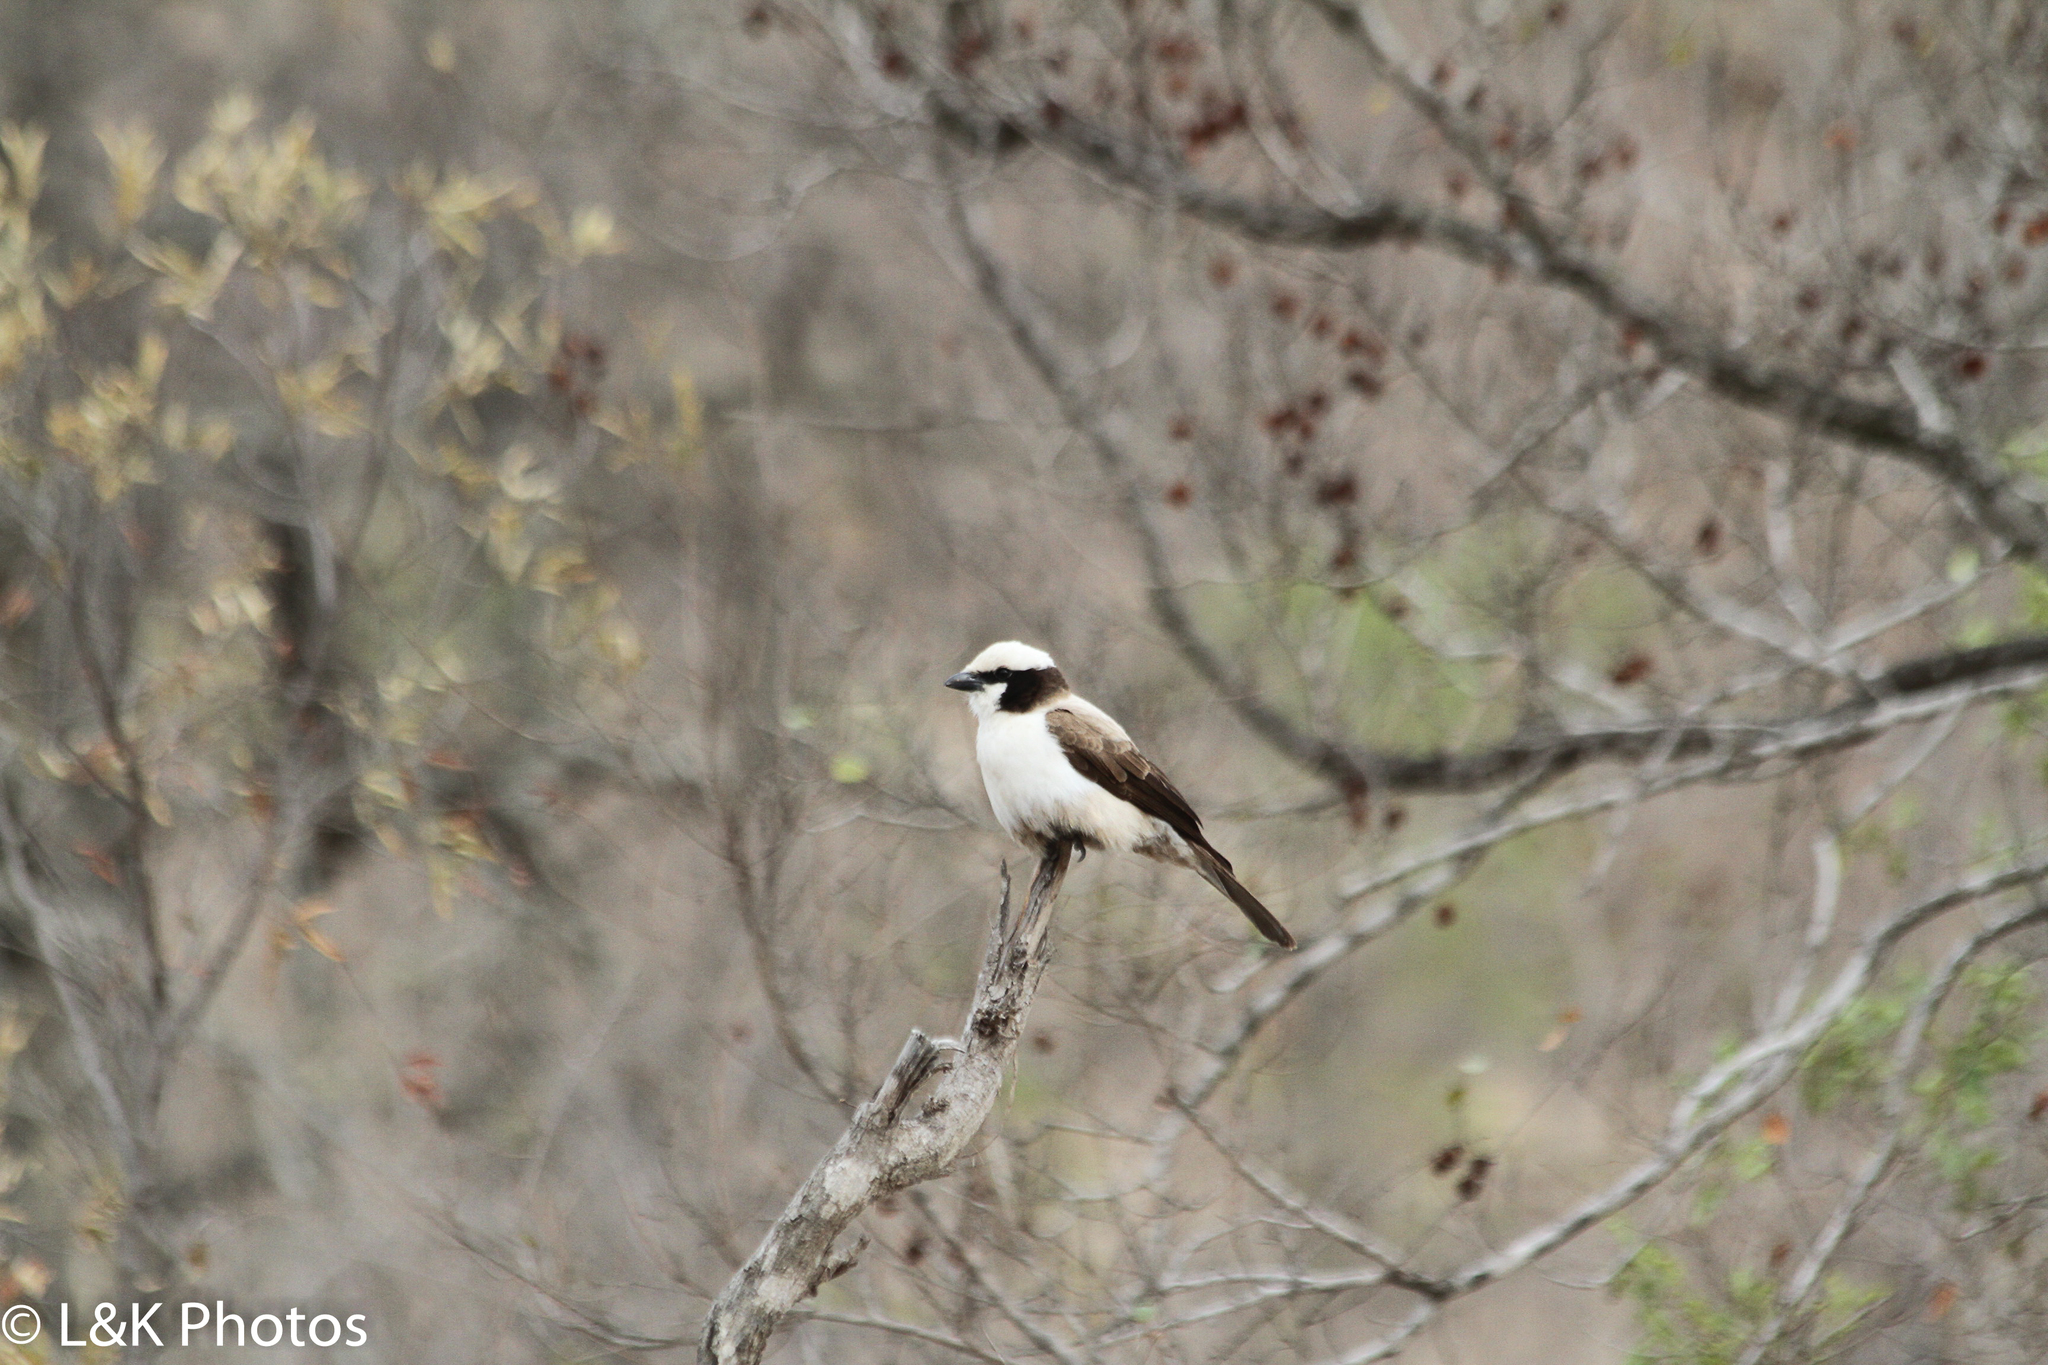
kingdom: Animalia
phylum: Chordata
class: Aves
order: Passeriformes
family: Laniidae
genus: Eurocephalus
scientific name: Eurocephalus anguitimens
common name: Southern white-crowned shrike
